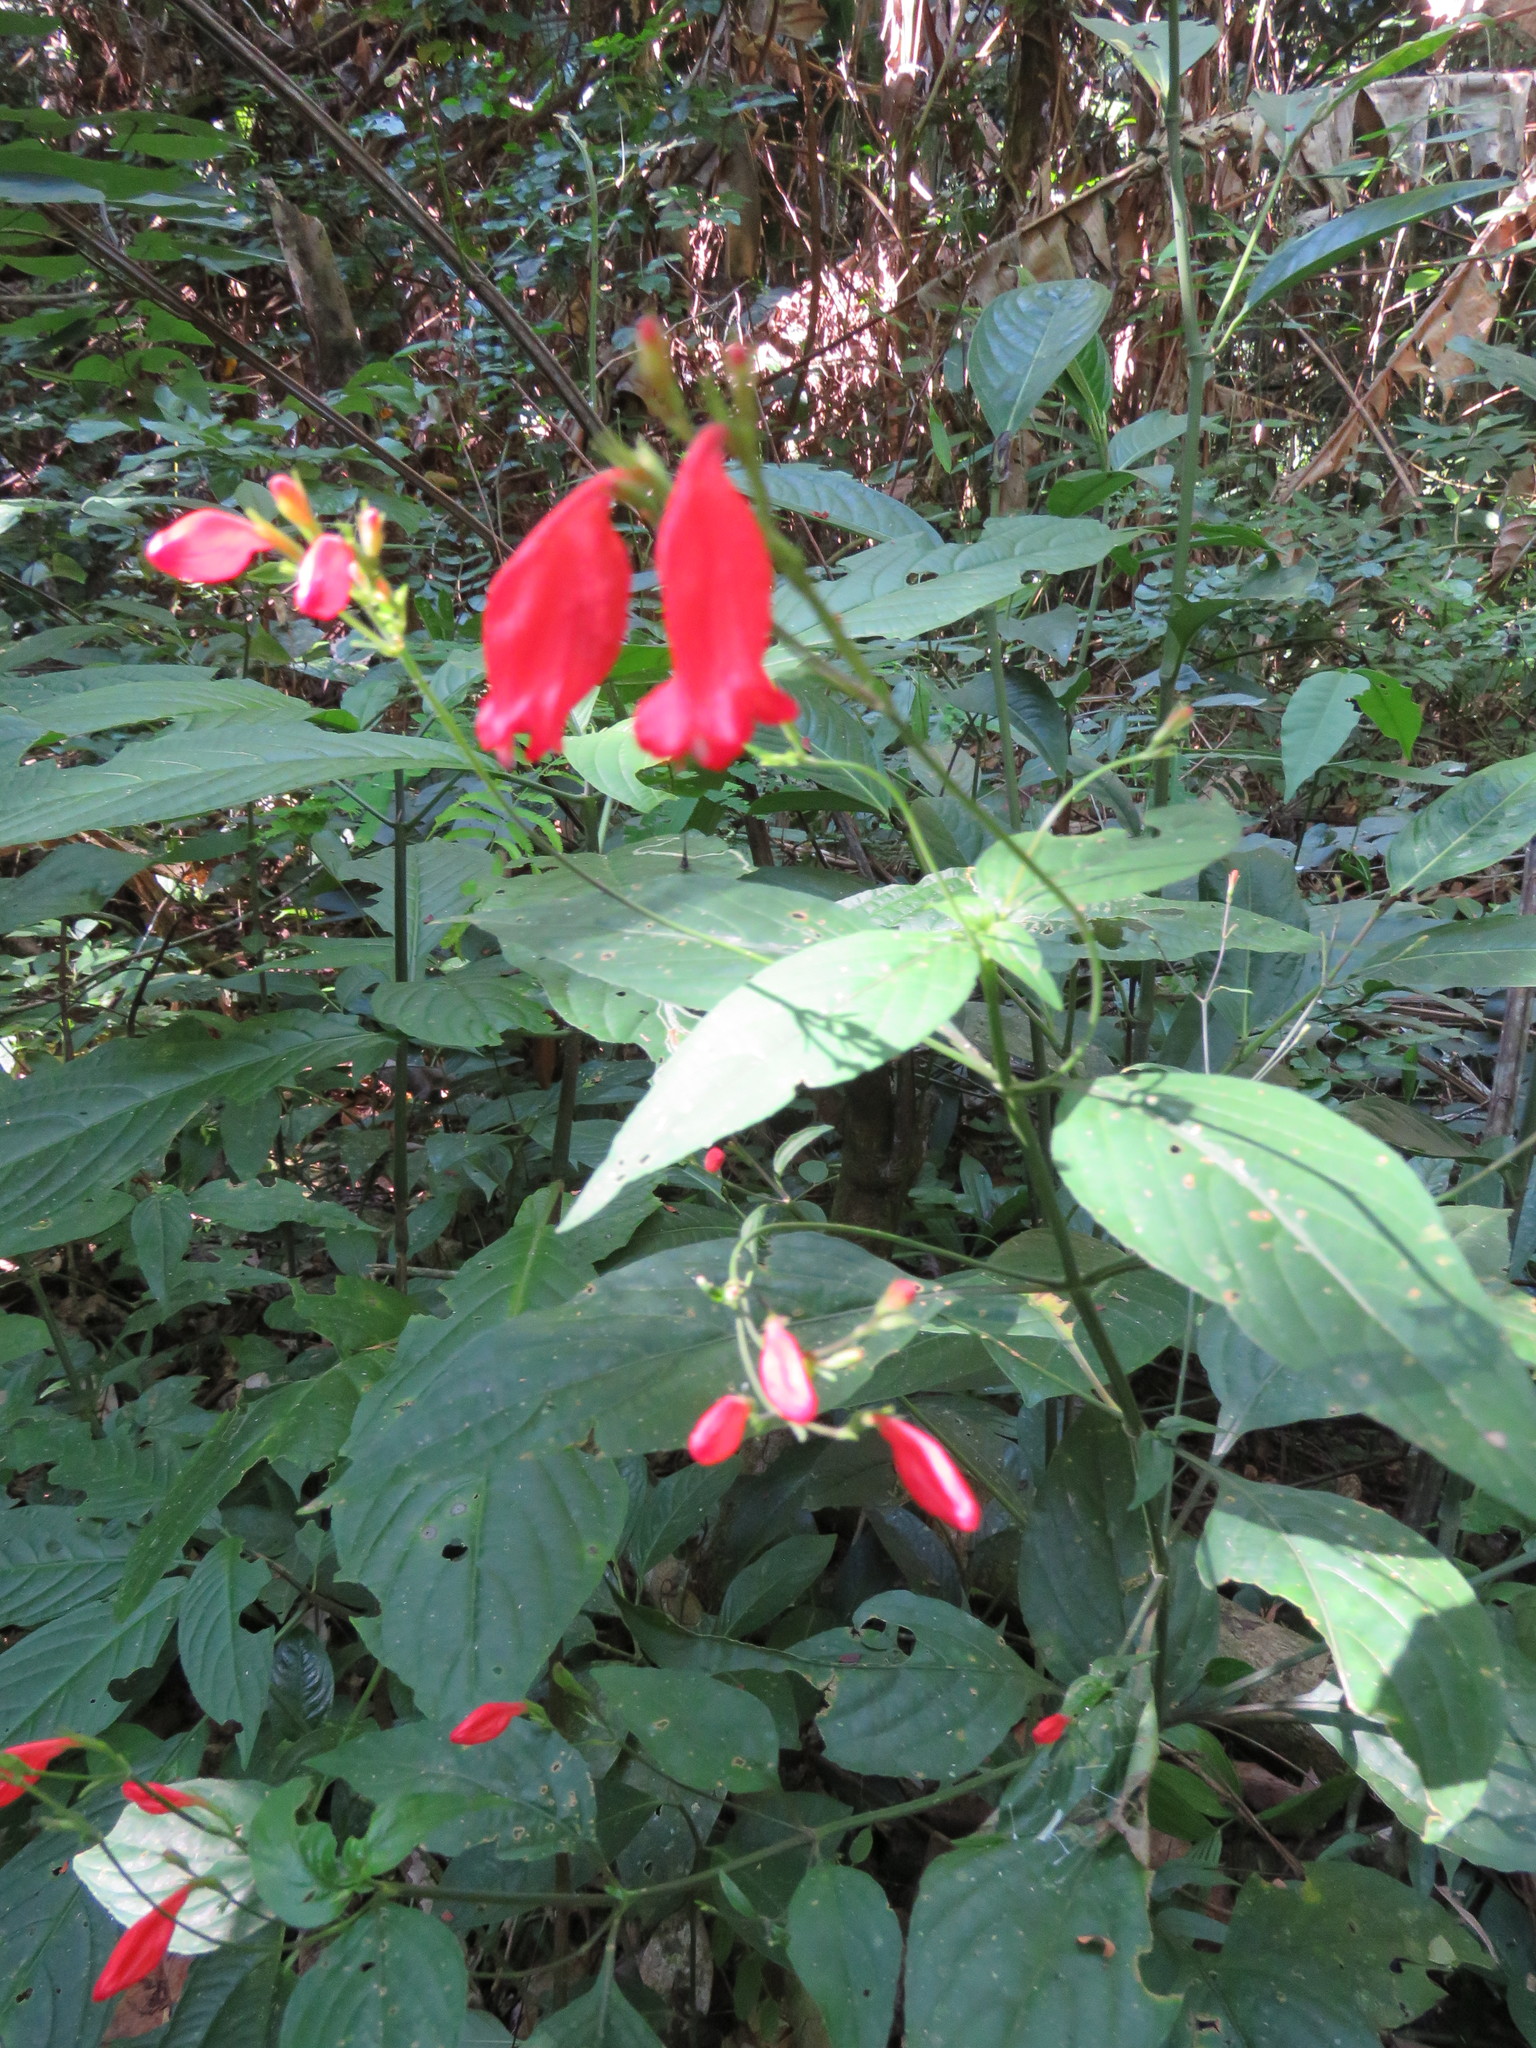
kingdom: Plantae
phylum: Tracheophyta
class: Magnoliopsida
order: Lamiales
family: Acanthaceae
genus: Ruellia
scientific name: Ruellia brevifolia
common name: Tropical wild petunia
